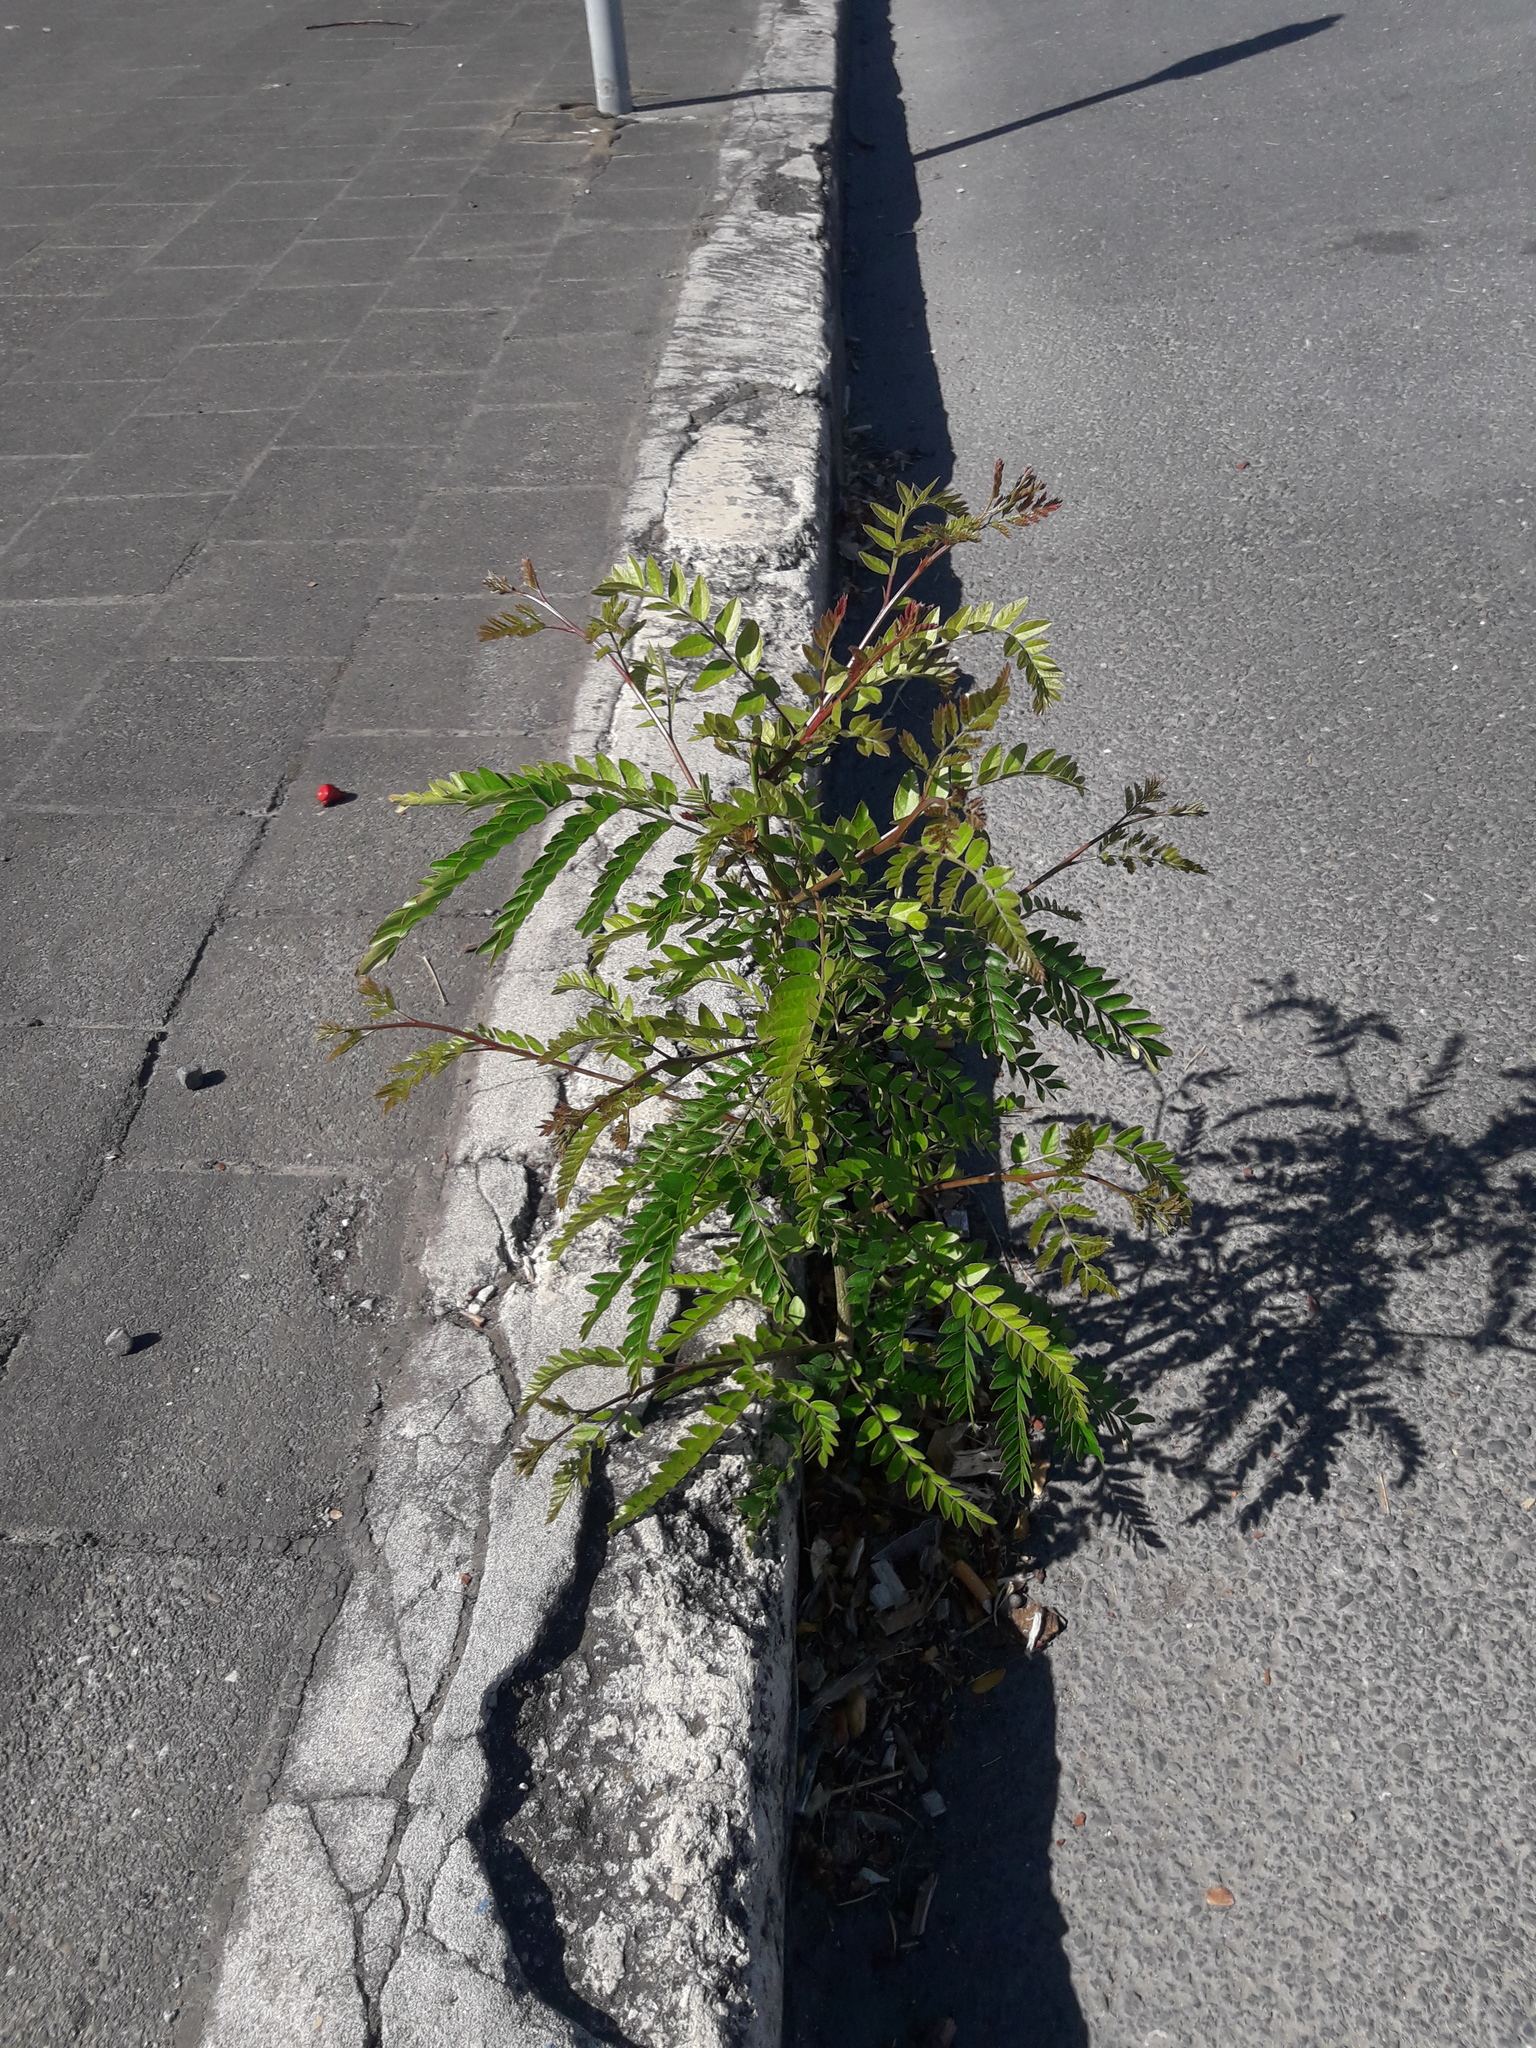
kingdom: Plantae
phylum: Tracheophyta
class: Magnoliopsida
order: Fabales
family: Fabaceae
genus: Gleditsia
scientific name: Gleditsia triacanthos
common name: Common honeylocust
